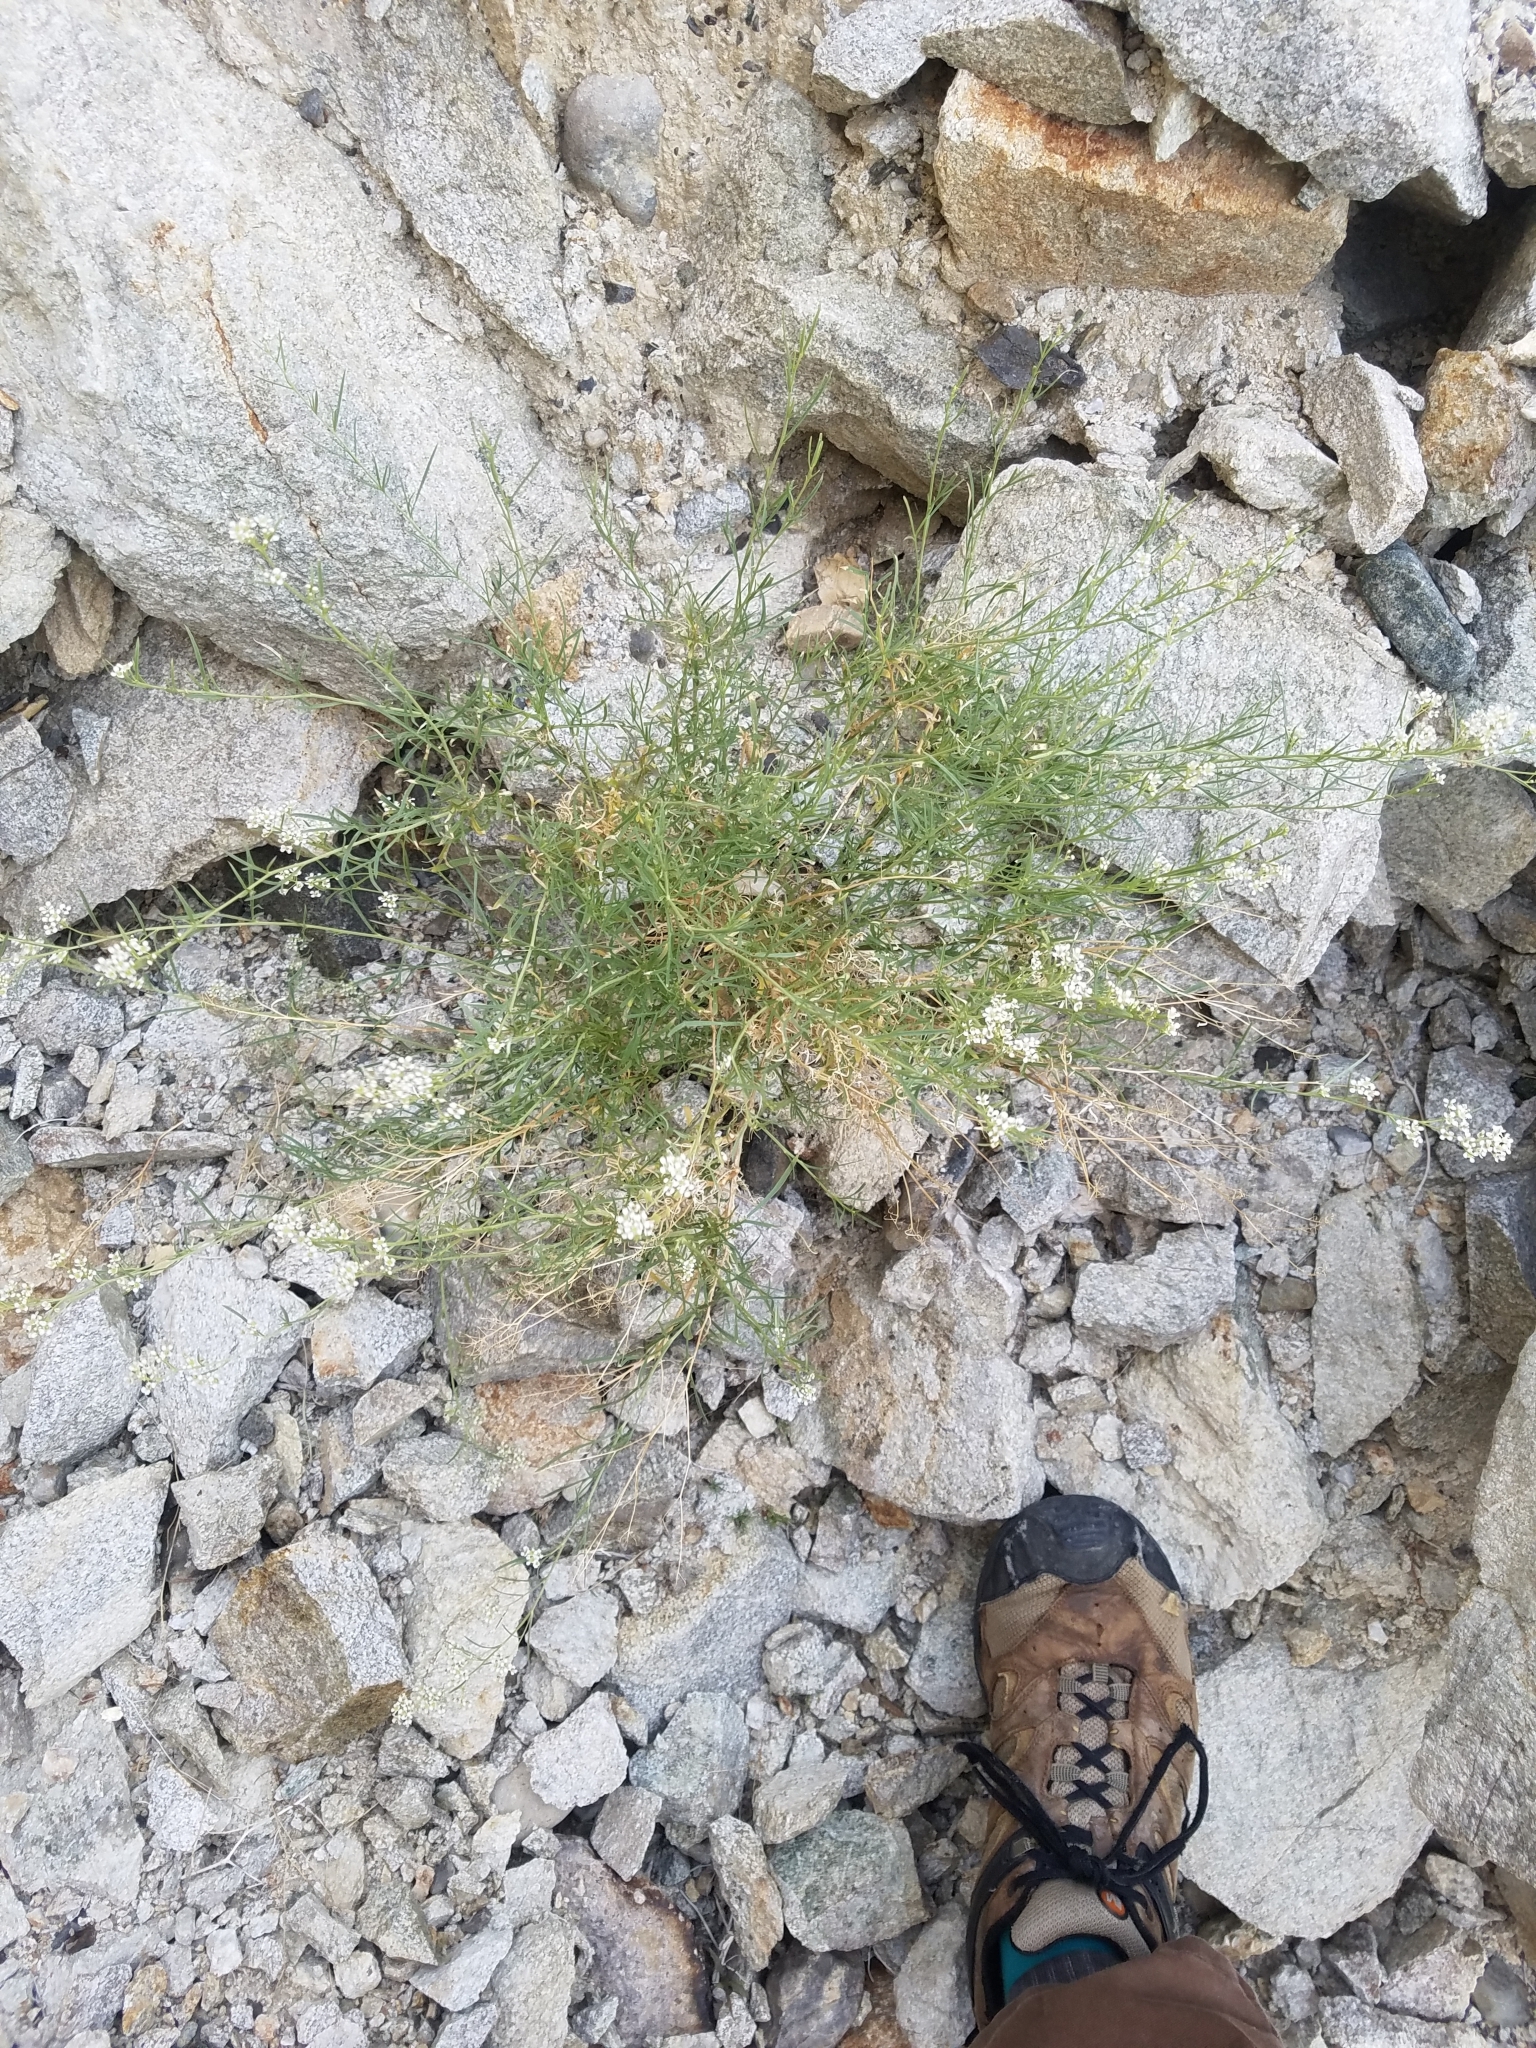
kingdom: Plantae
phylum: Tracheophyta
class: Magnoliopsida
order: Brassicales
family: Brassicaceae
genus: Lepidium
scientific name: Lepidium fremontii
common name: Fremont's pepperwort
